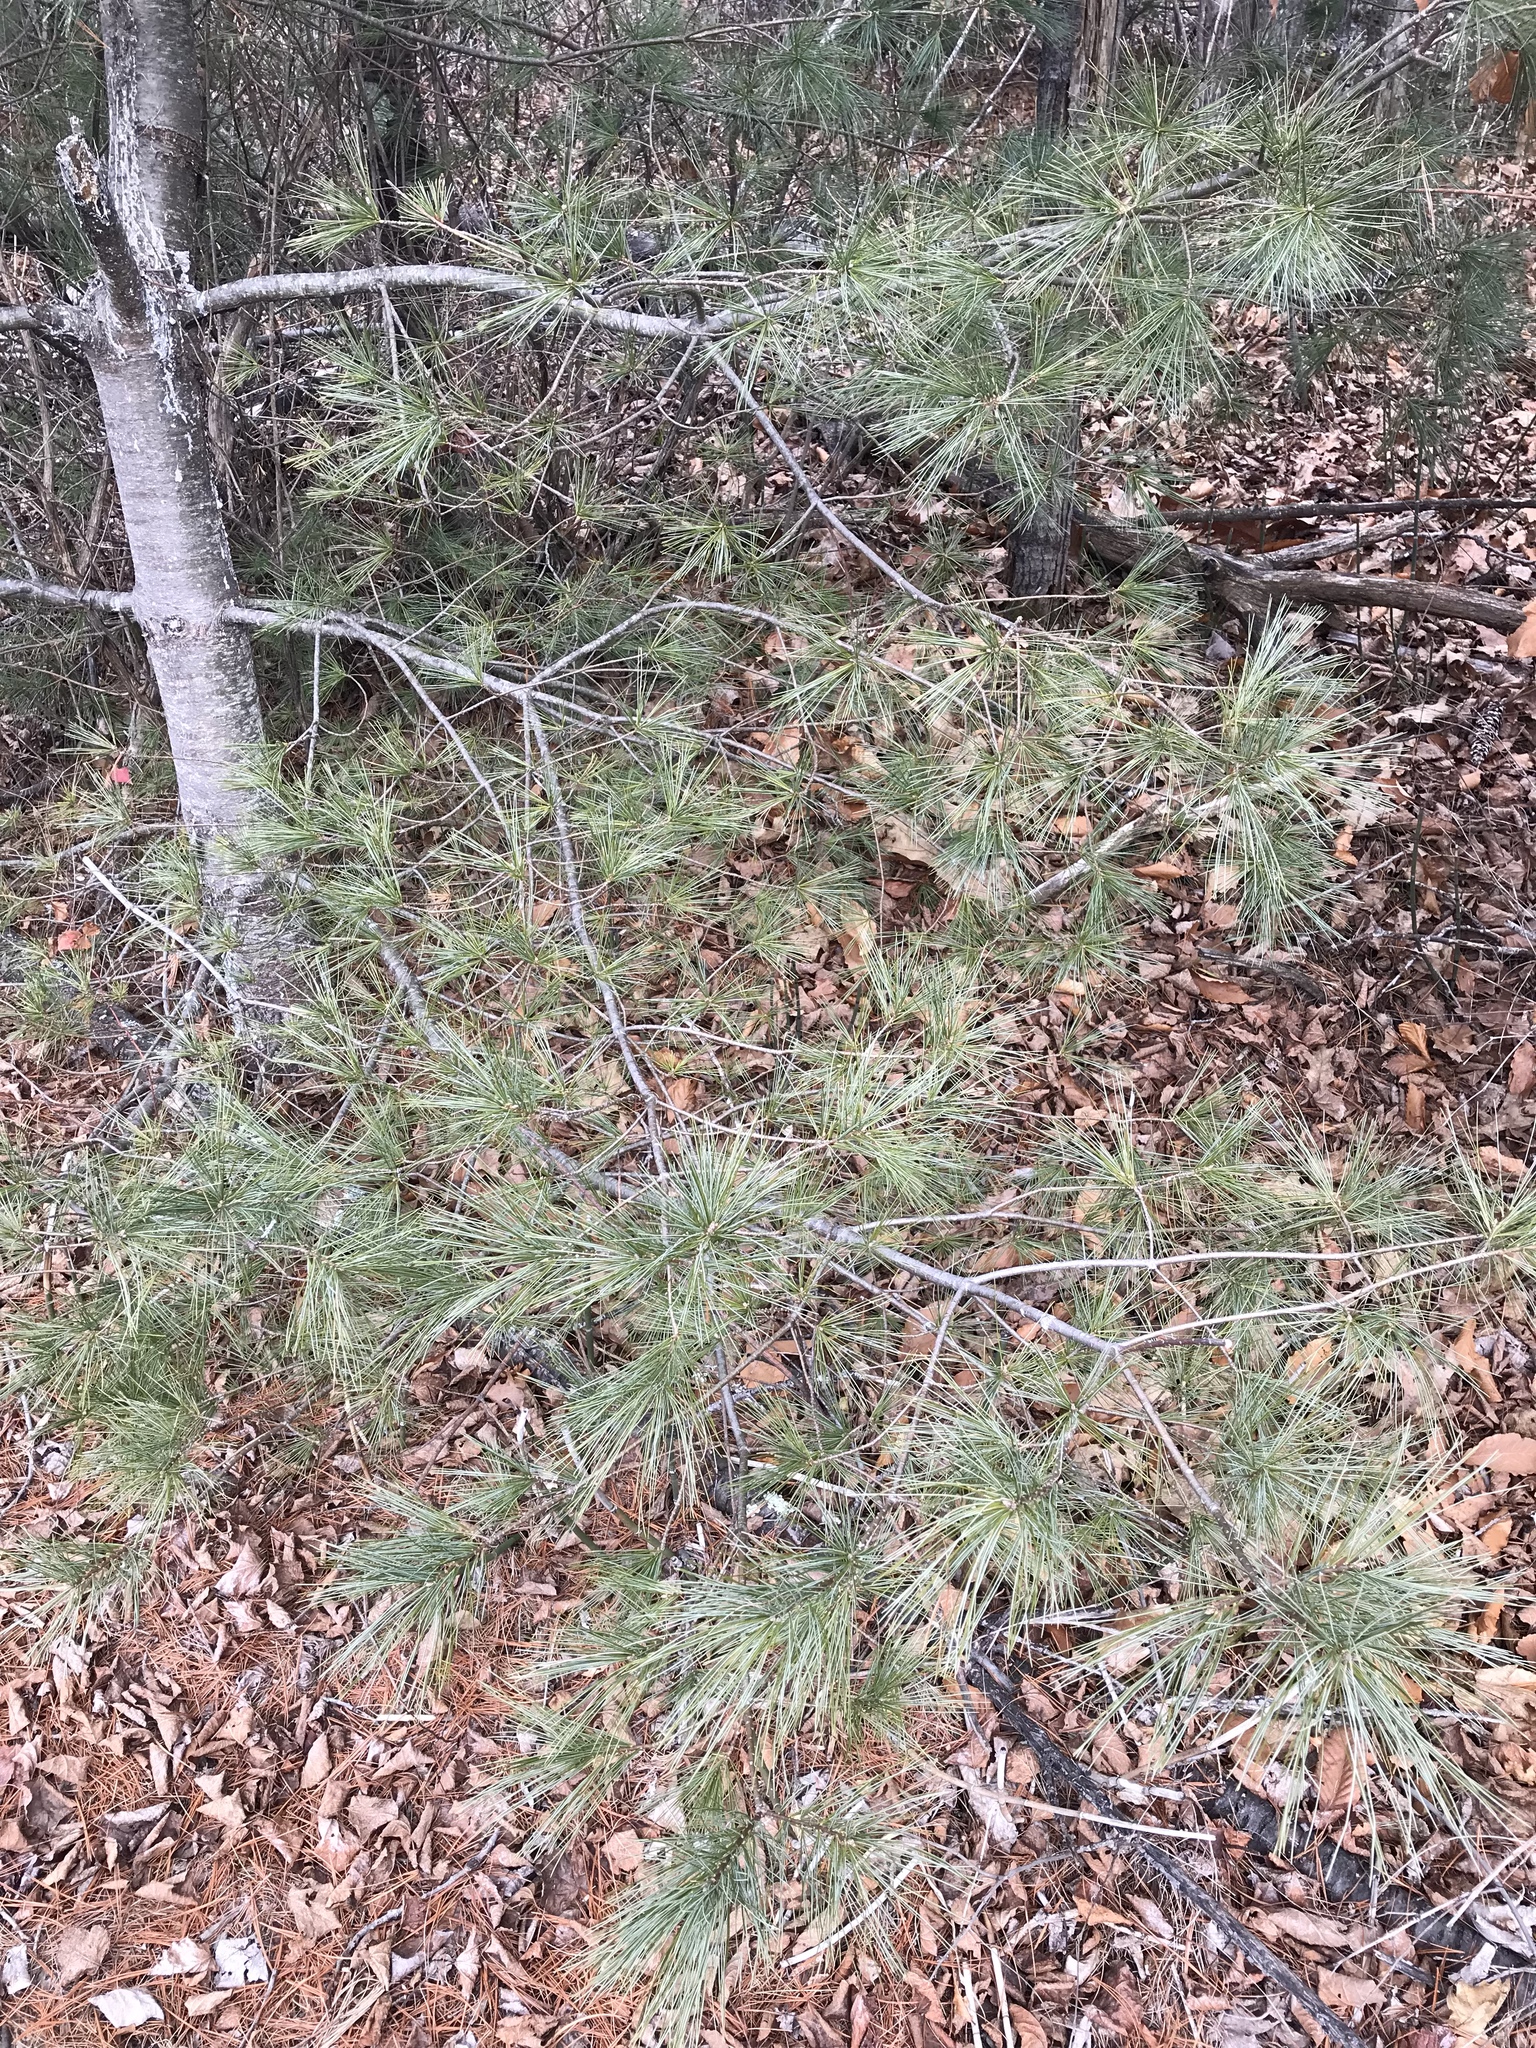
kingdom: Plantae
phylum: Tracheophyta
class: Pinopsida
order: Pinales
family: Pinaceae
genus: Pinus
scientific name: Pinus strobus
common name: Weymouth pine
